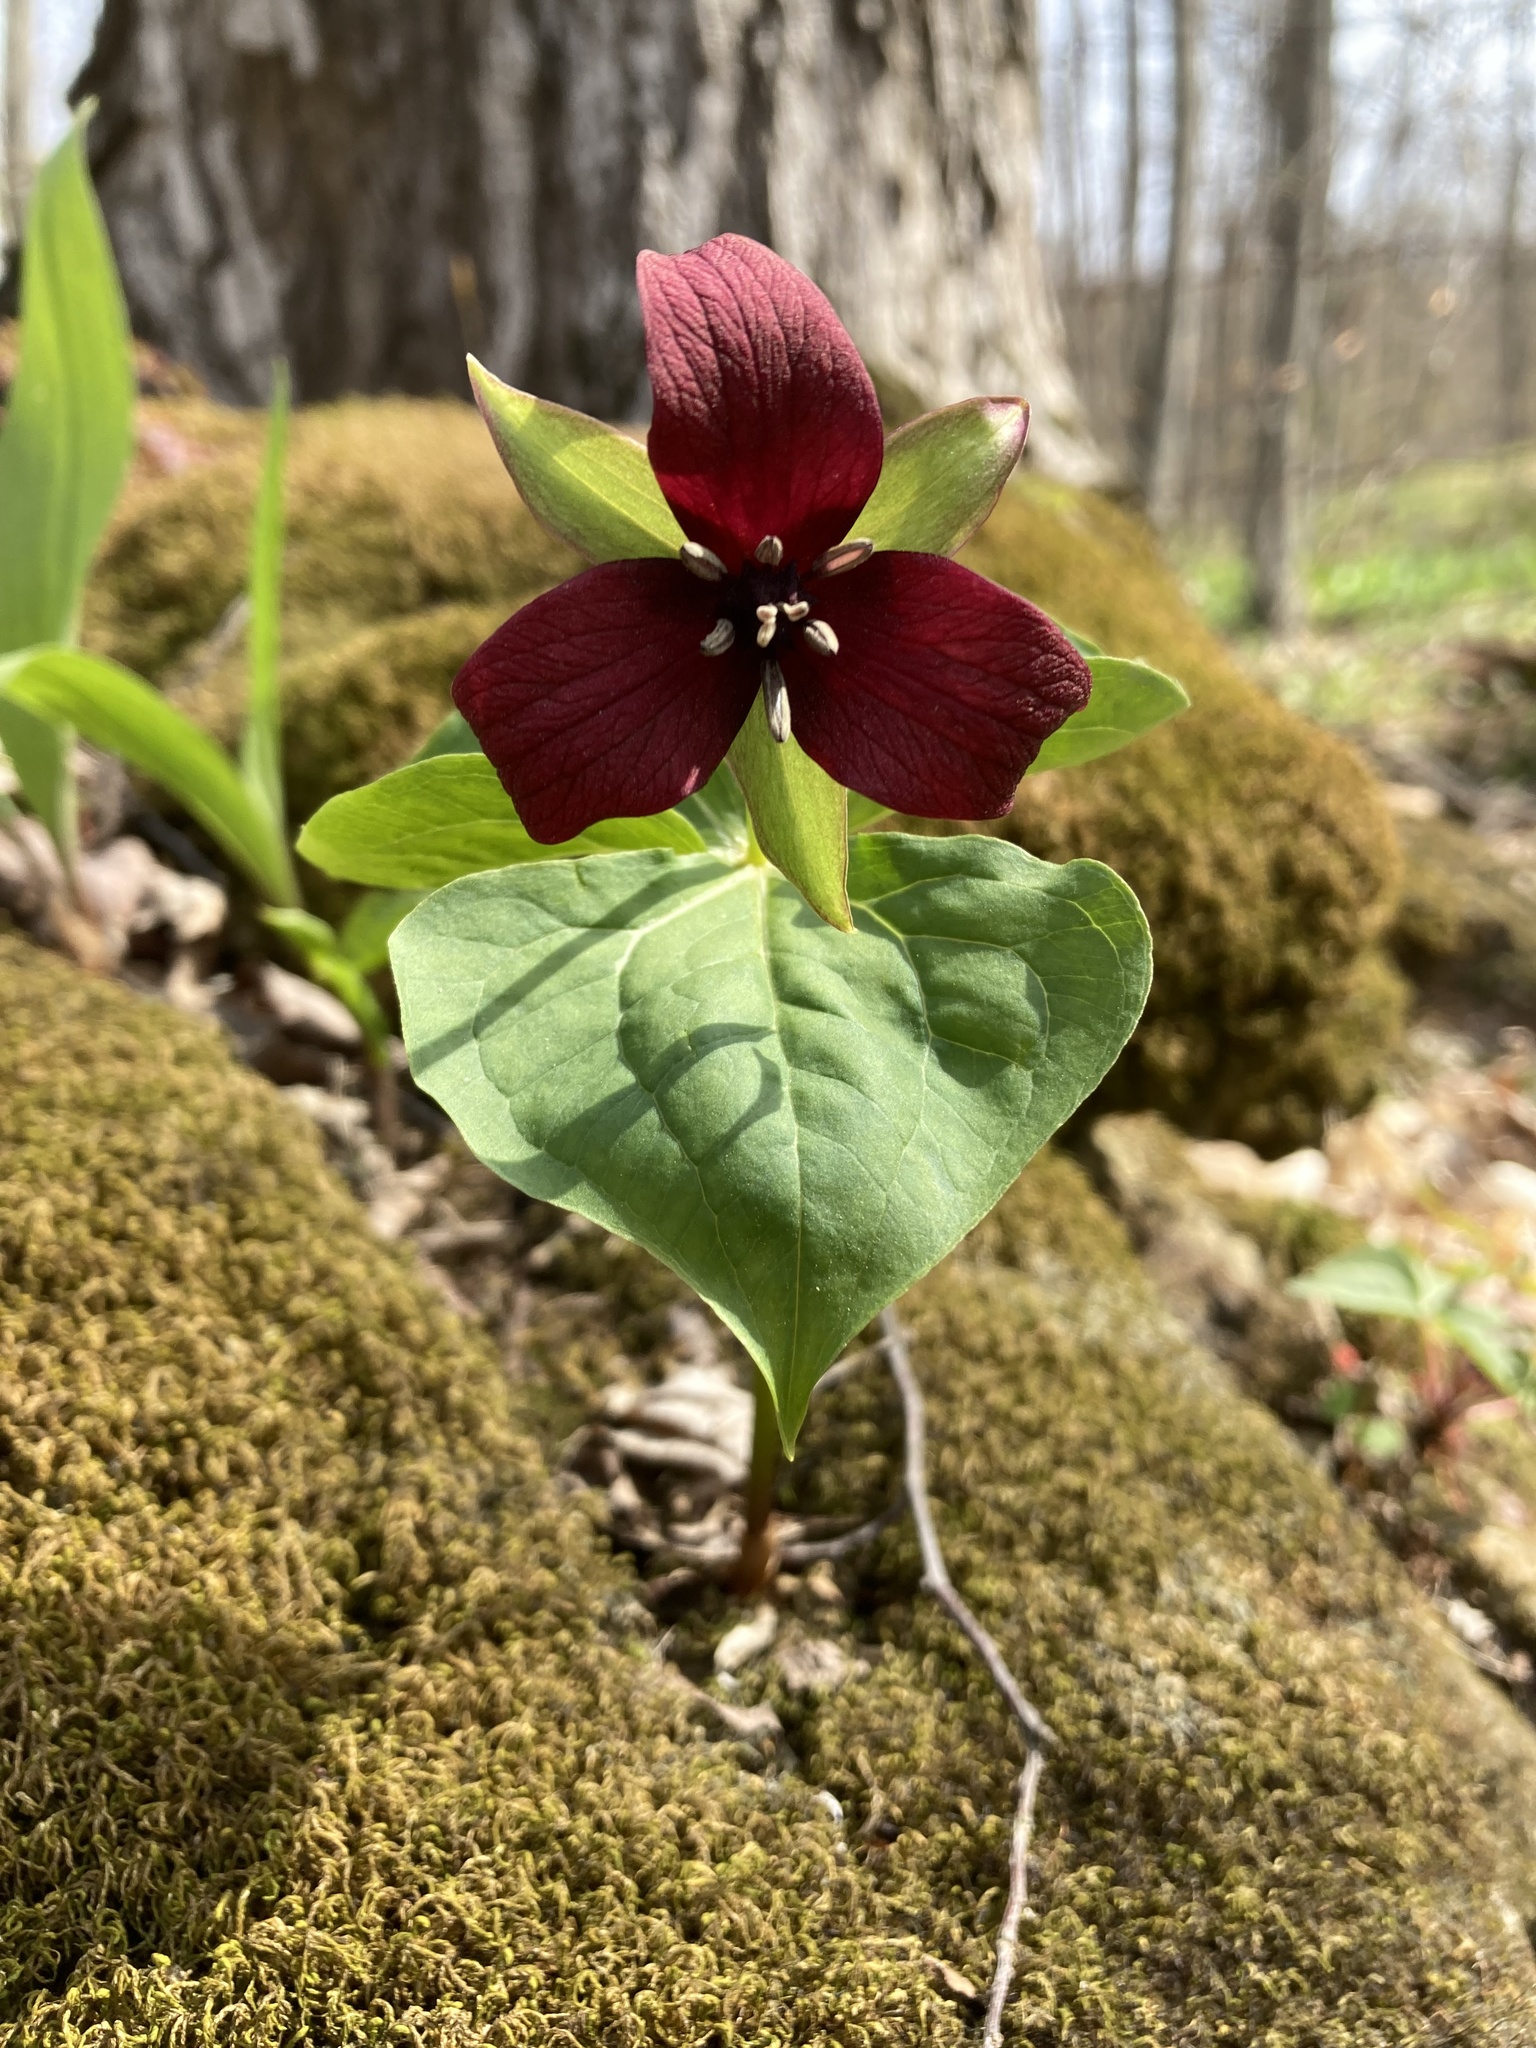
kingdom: Plantae
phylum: Tracheophyta
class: Liliopsida
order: Liliales
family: Melanthiaceae
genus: Trillium
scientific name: Trillium erectum
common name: Purple trillium
